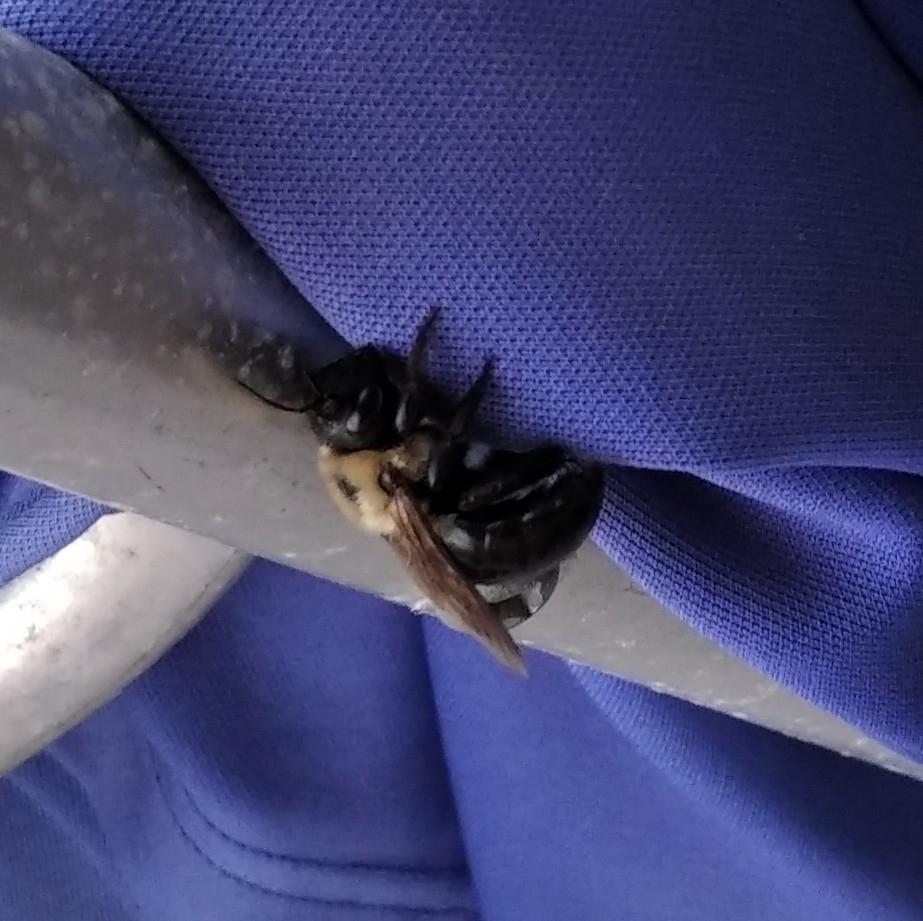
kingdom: Animalia
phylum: Arthropoda
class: Insecta
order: Hymenoptera
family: Apidae
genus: Xylocopa
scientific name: Xylocopa virginica
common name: Carpenter bee
